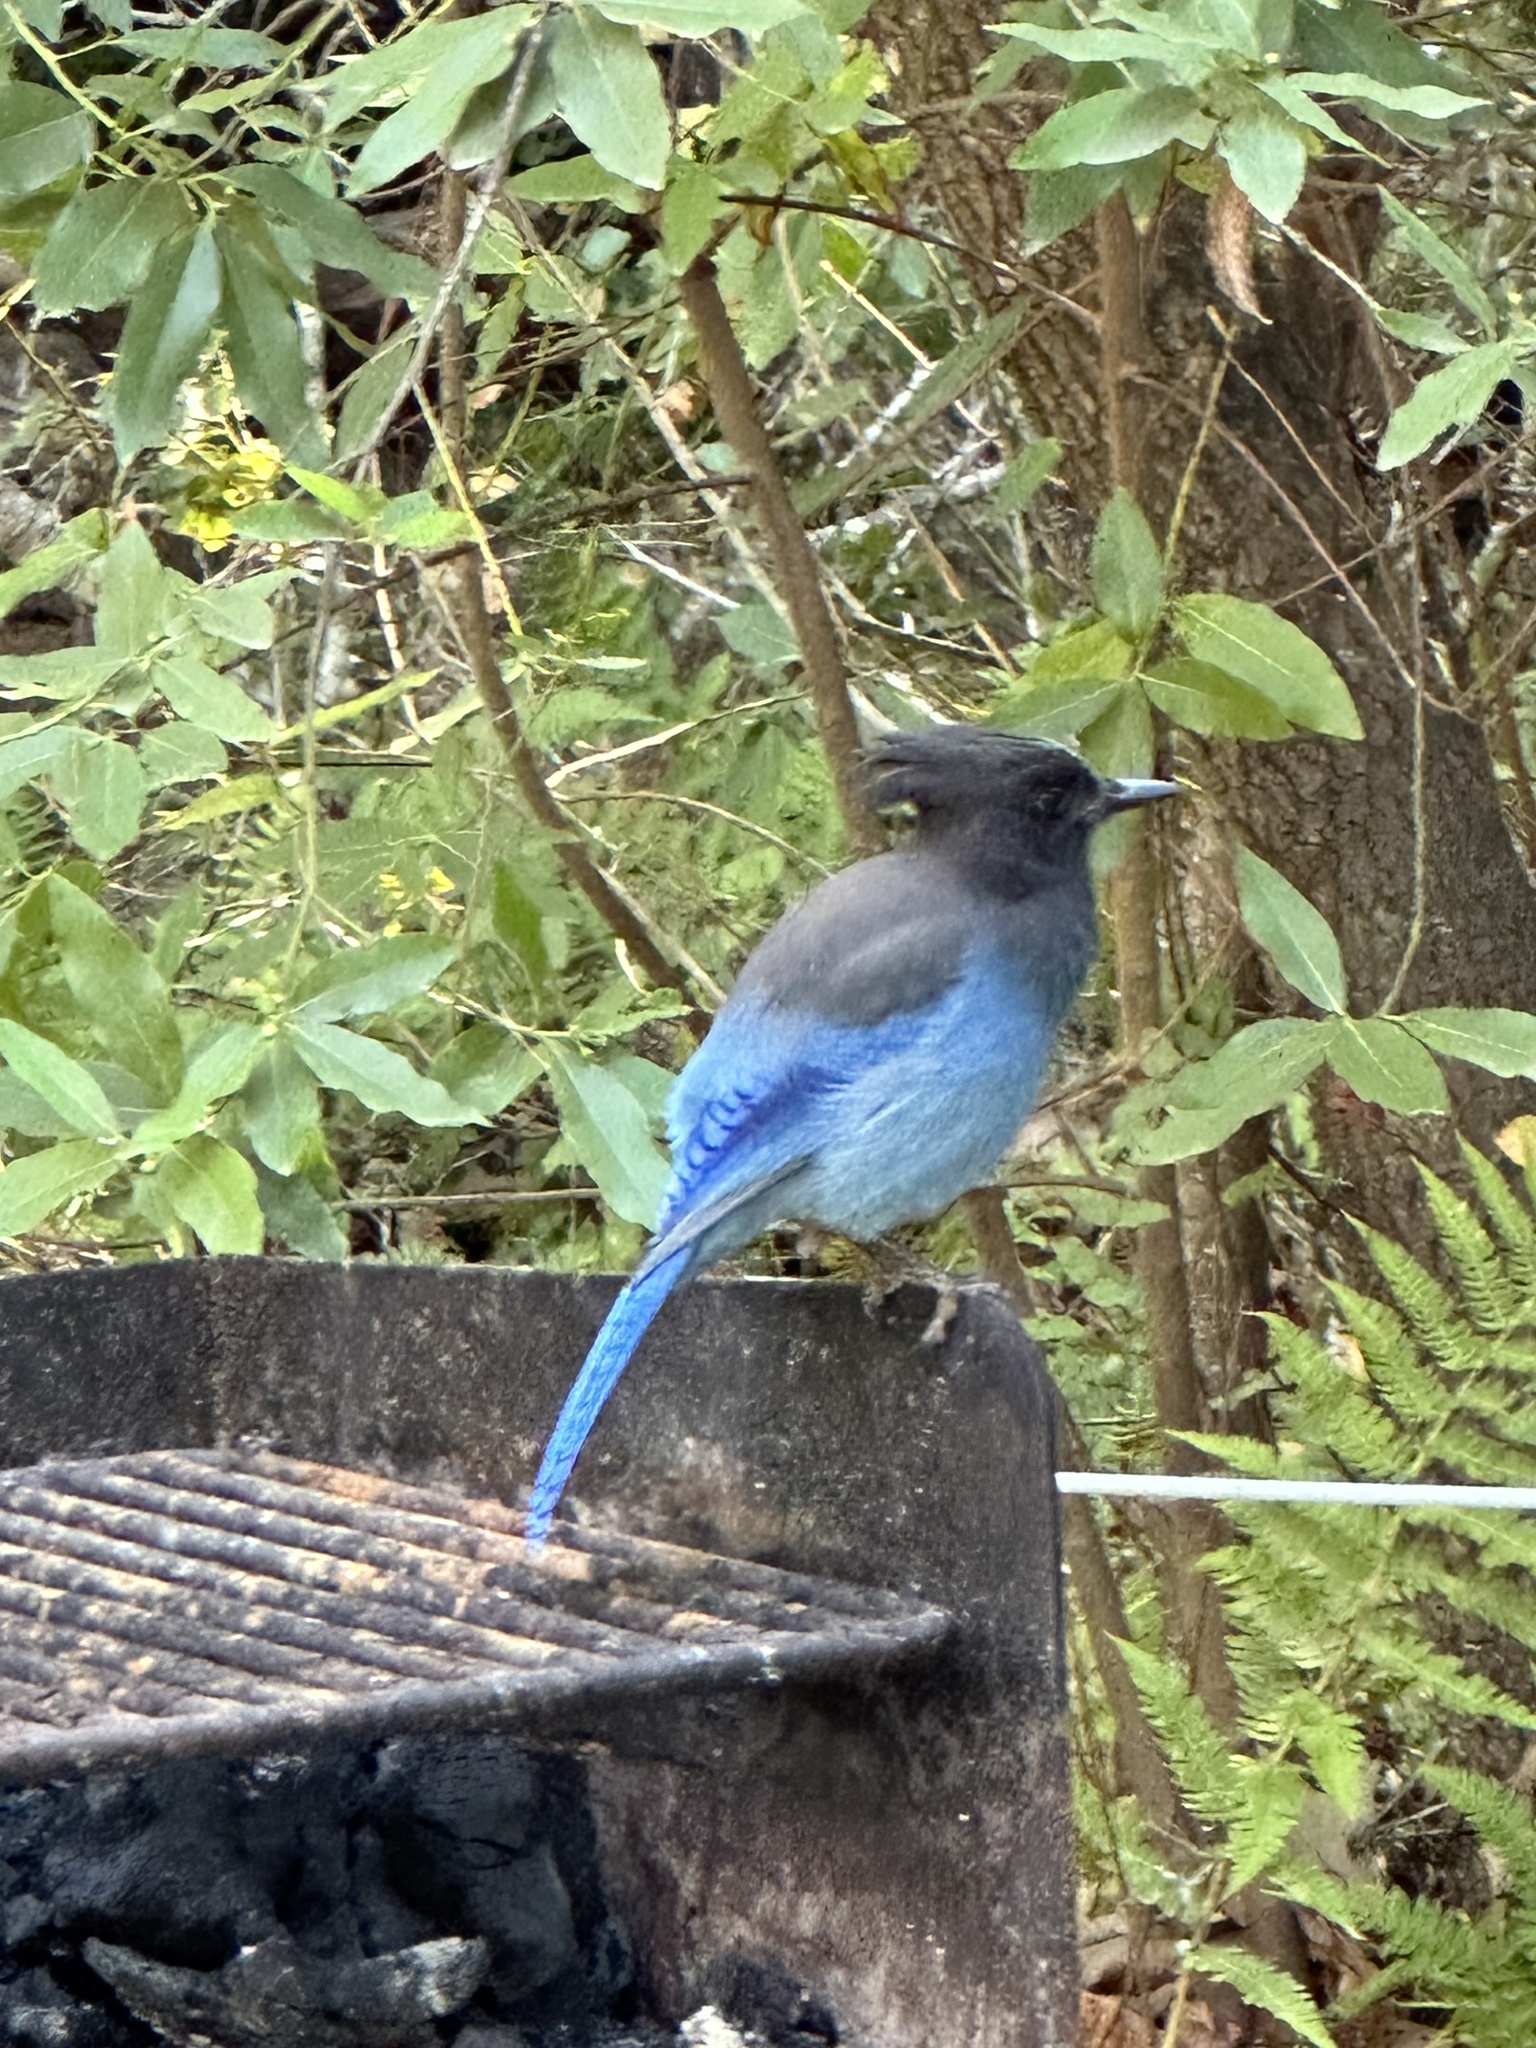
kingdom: Animalia
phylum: Chordata
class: Aves
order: Passeriformes
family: Corvidae
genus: Cyanocitta
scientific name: Cyanocitta stelleri
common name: Steller's jay
